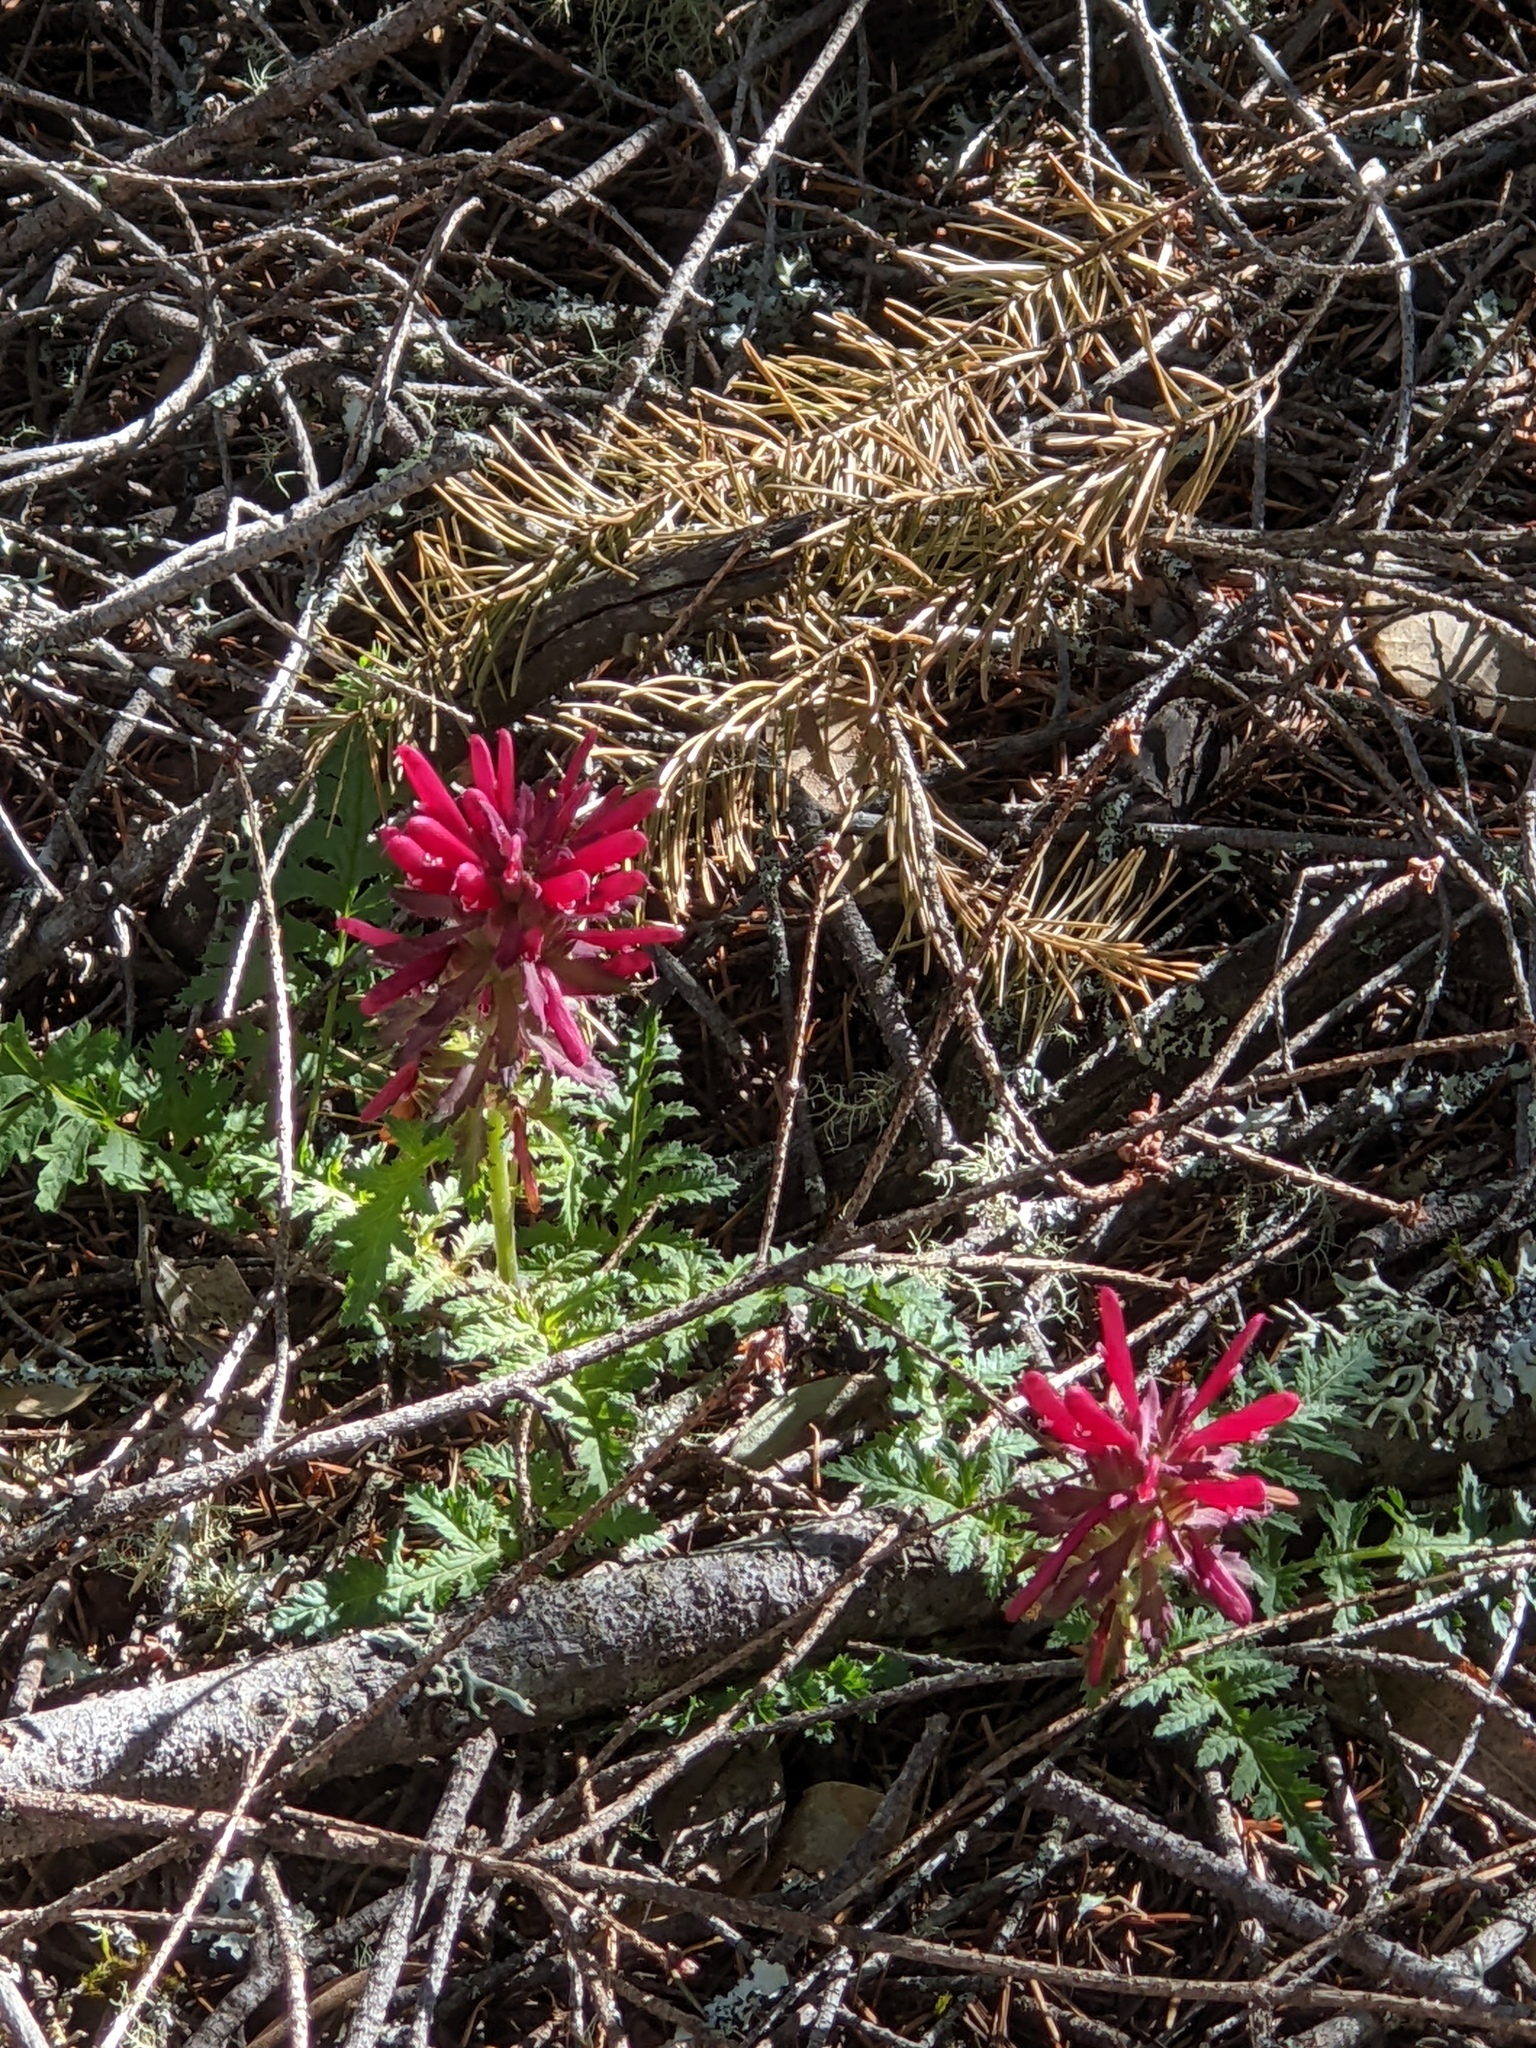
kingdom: Plantae
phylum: Tracheophyta
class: Magnoliopsida
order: Lamiales
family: Orobanchaceae
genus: Pedicularis
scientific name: Pedicularis densiflora
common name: Indian warrior
